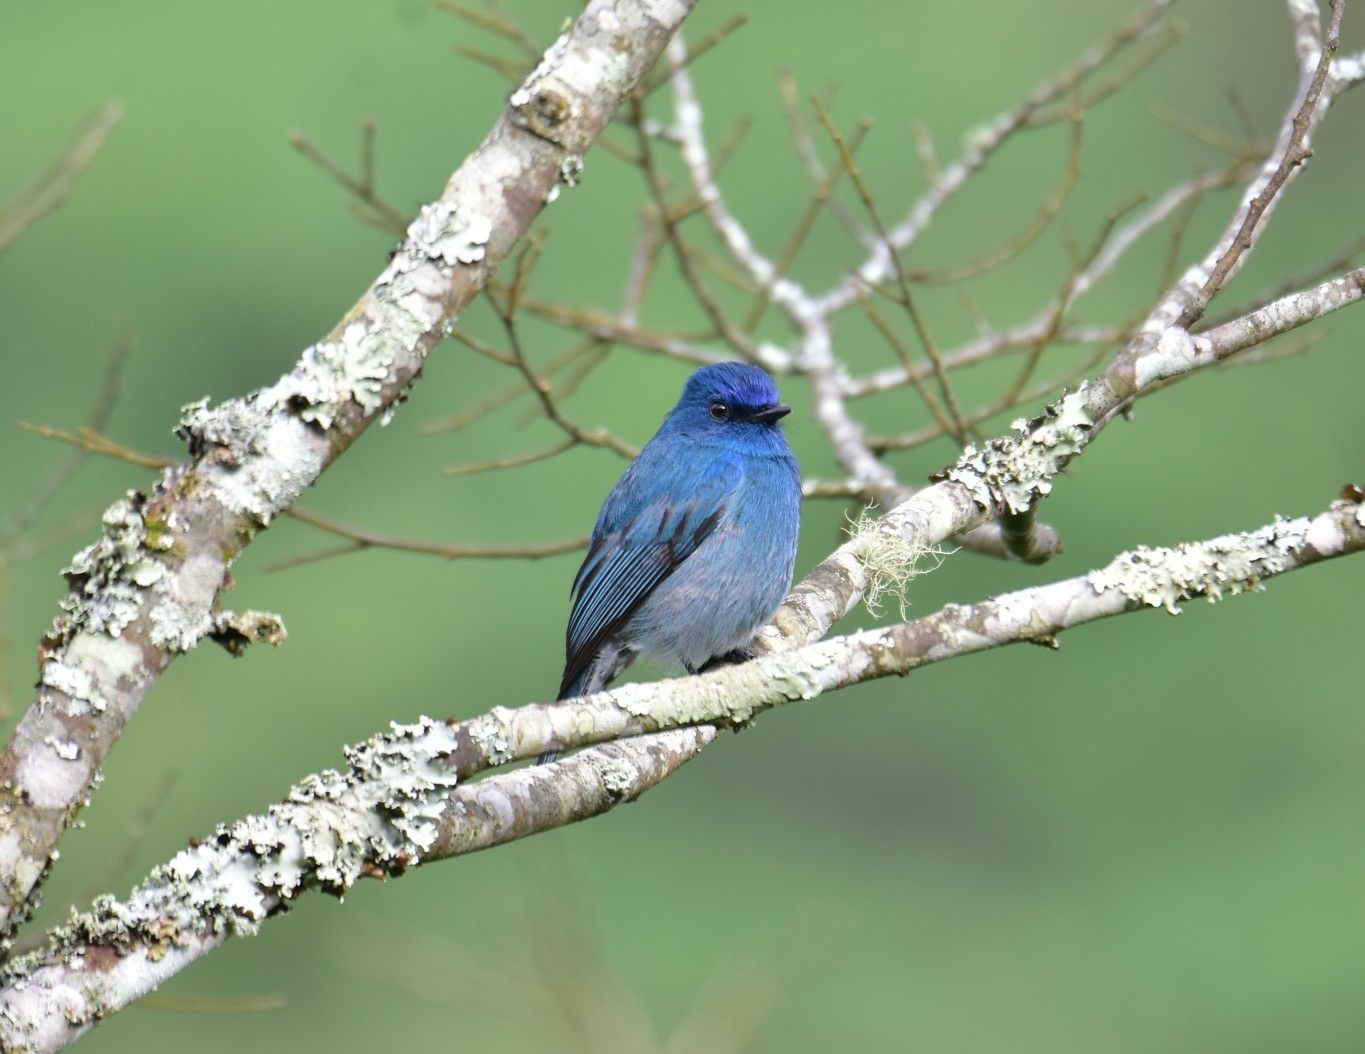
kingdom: Animalia
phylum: Chordata
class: Aves
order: Passeriformes
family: Muscicapidae
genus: Eumyias
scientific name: Eumyias albicaudatus
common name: Nilgiri flycatcher
